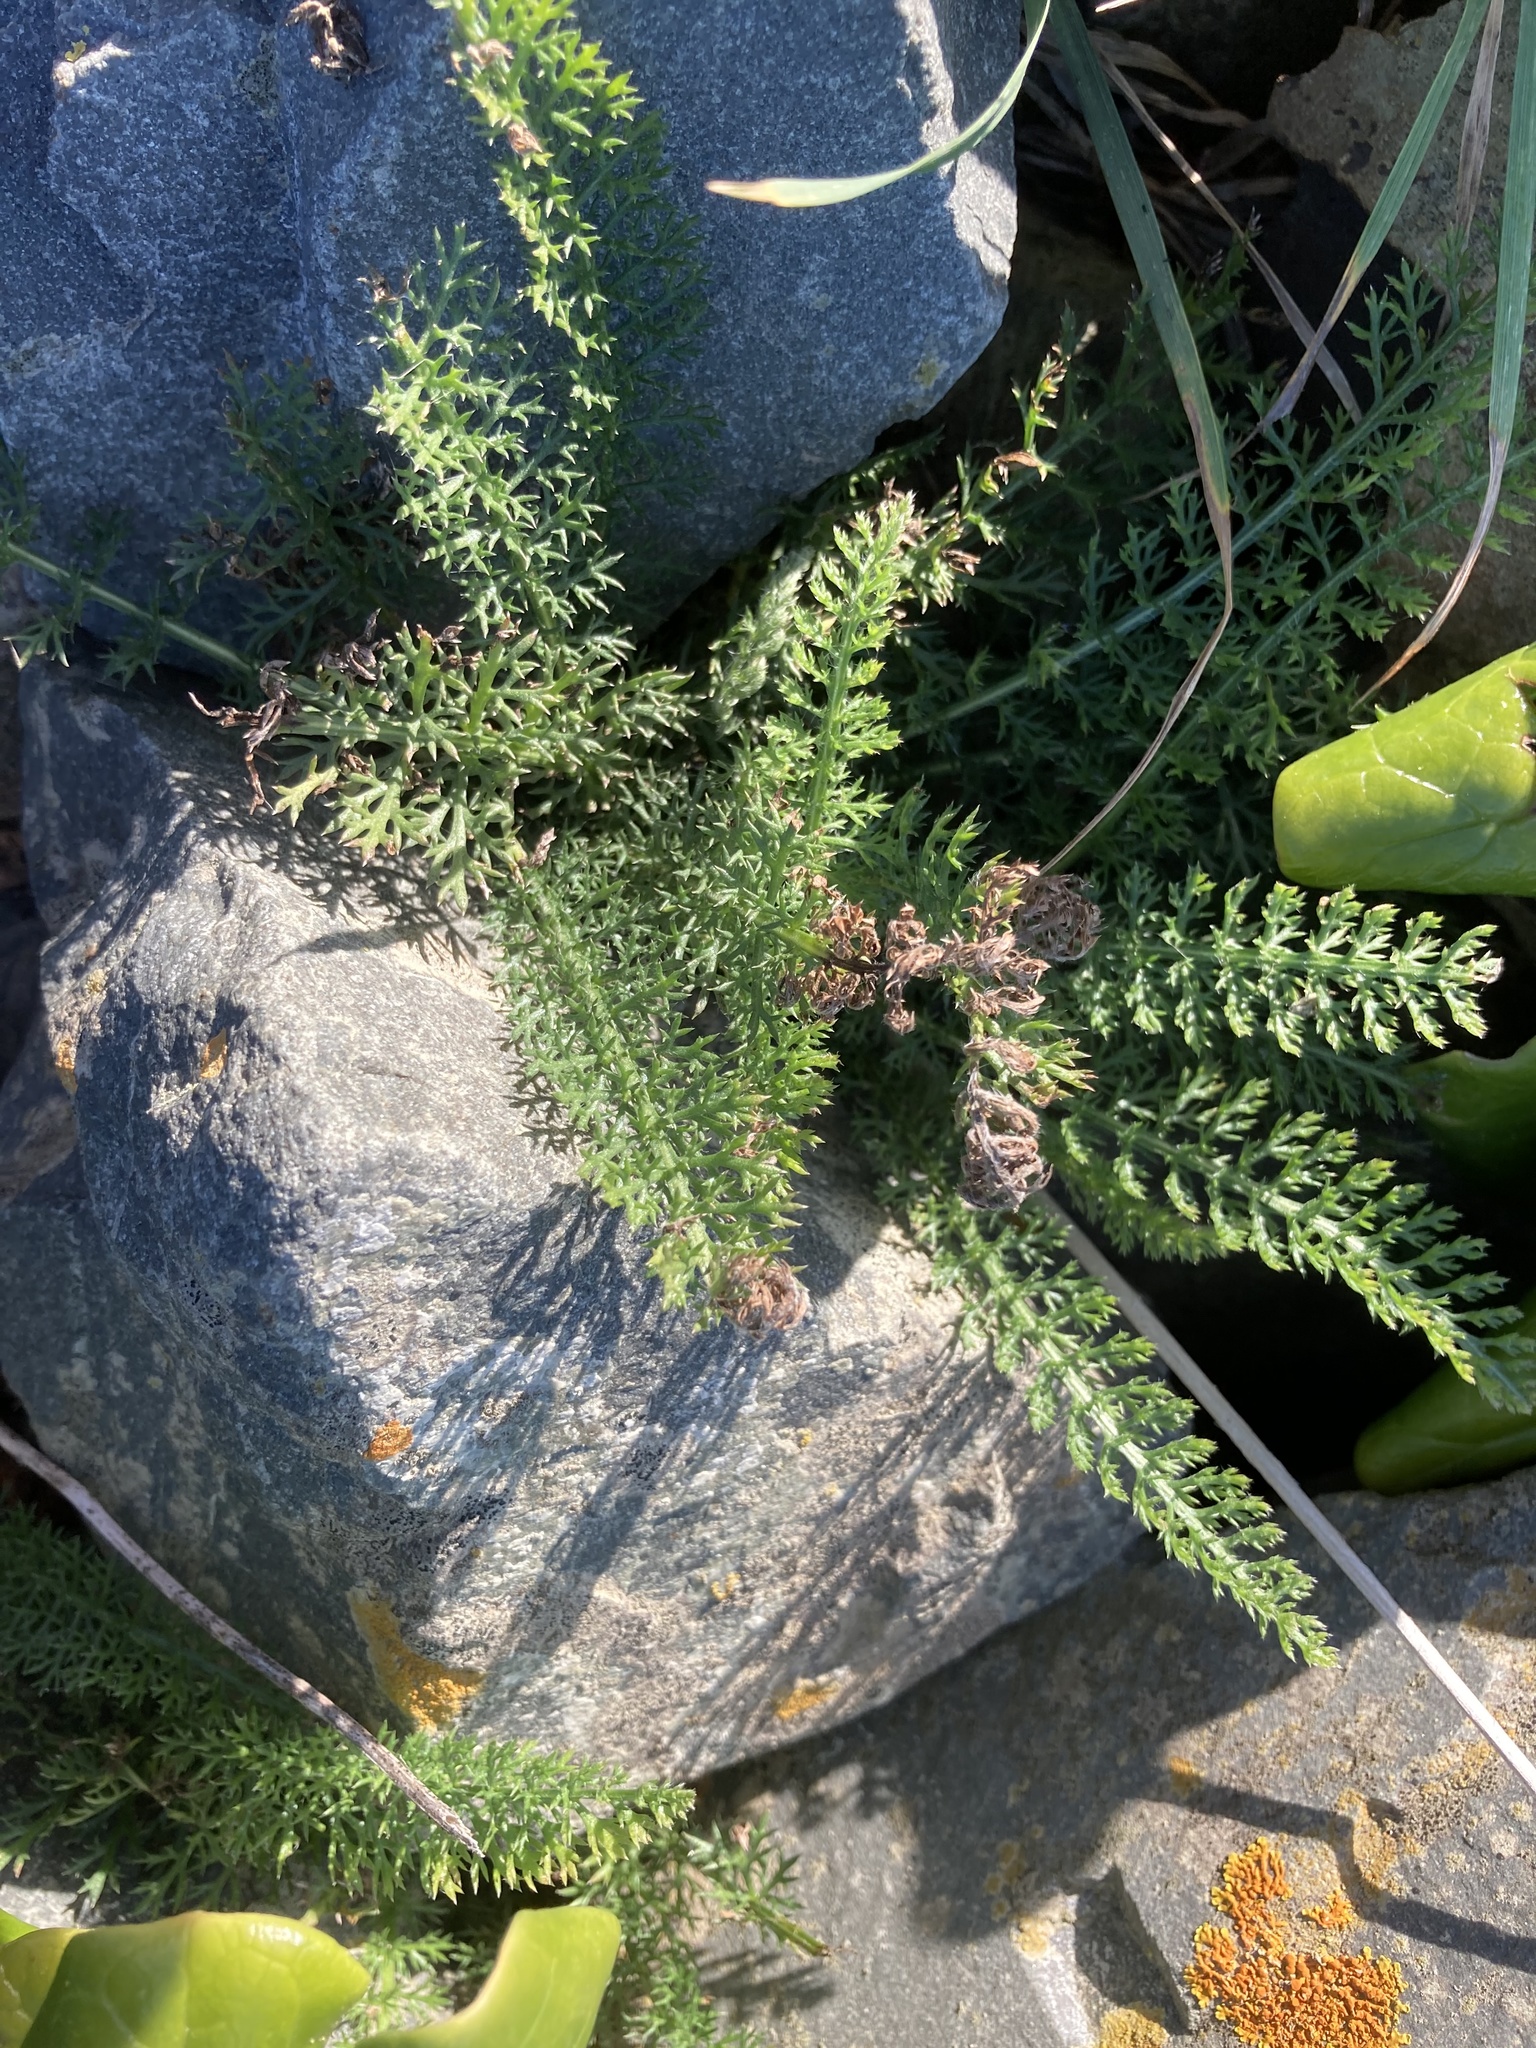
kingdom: Plantae
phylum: Tracheophyta
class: Magnoliopsida
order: Asterales
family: Asteraceae
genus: Achillea
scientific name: Achillea millefolium
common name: Yarrow
